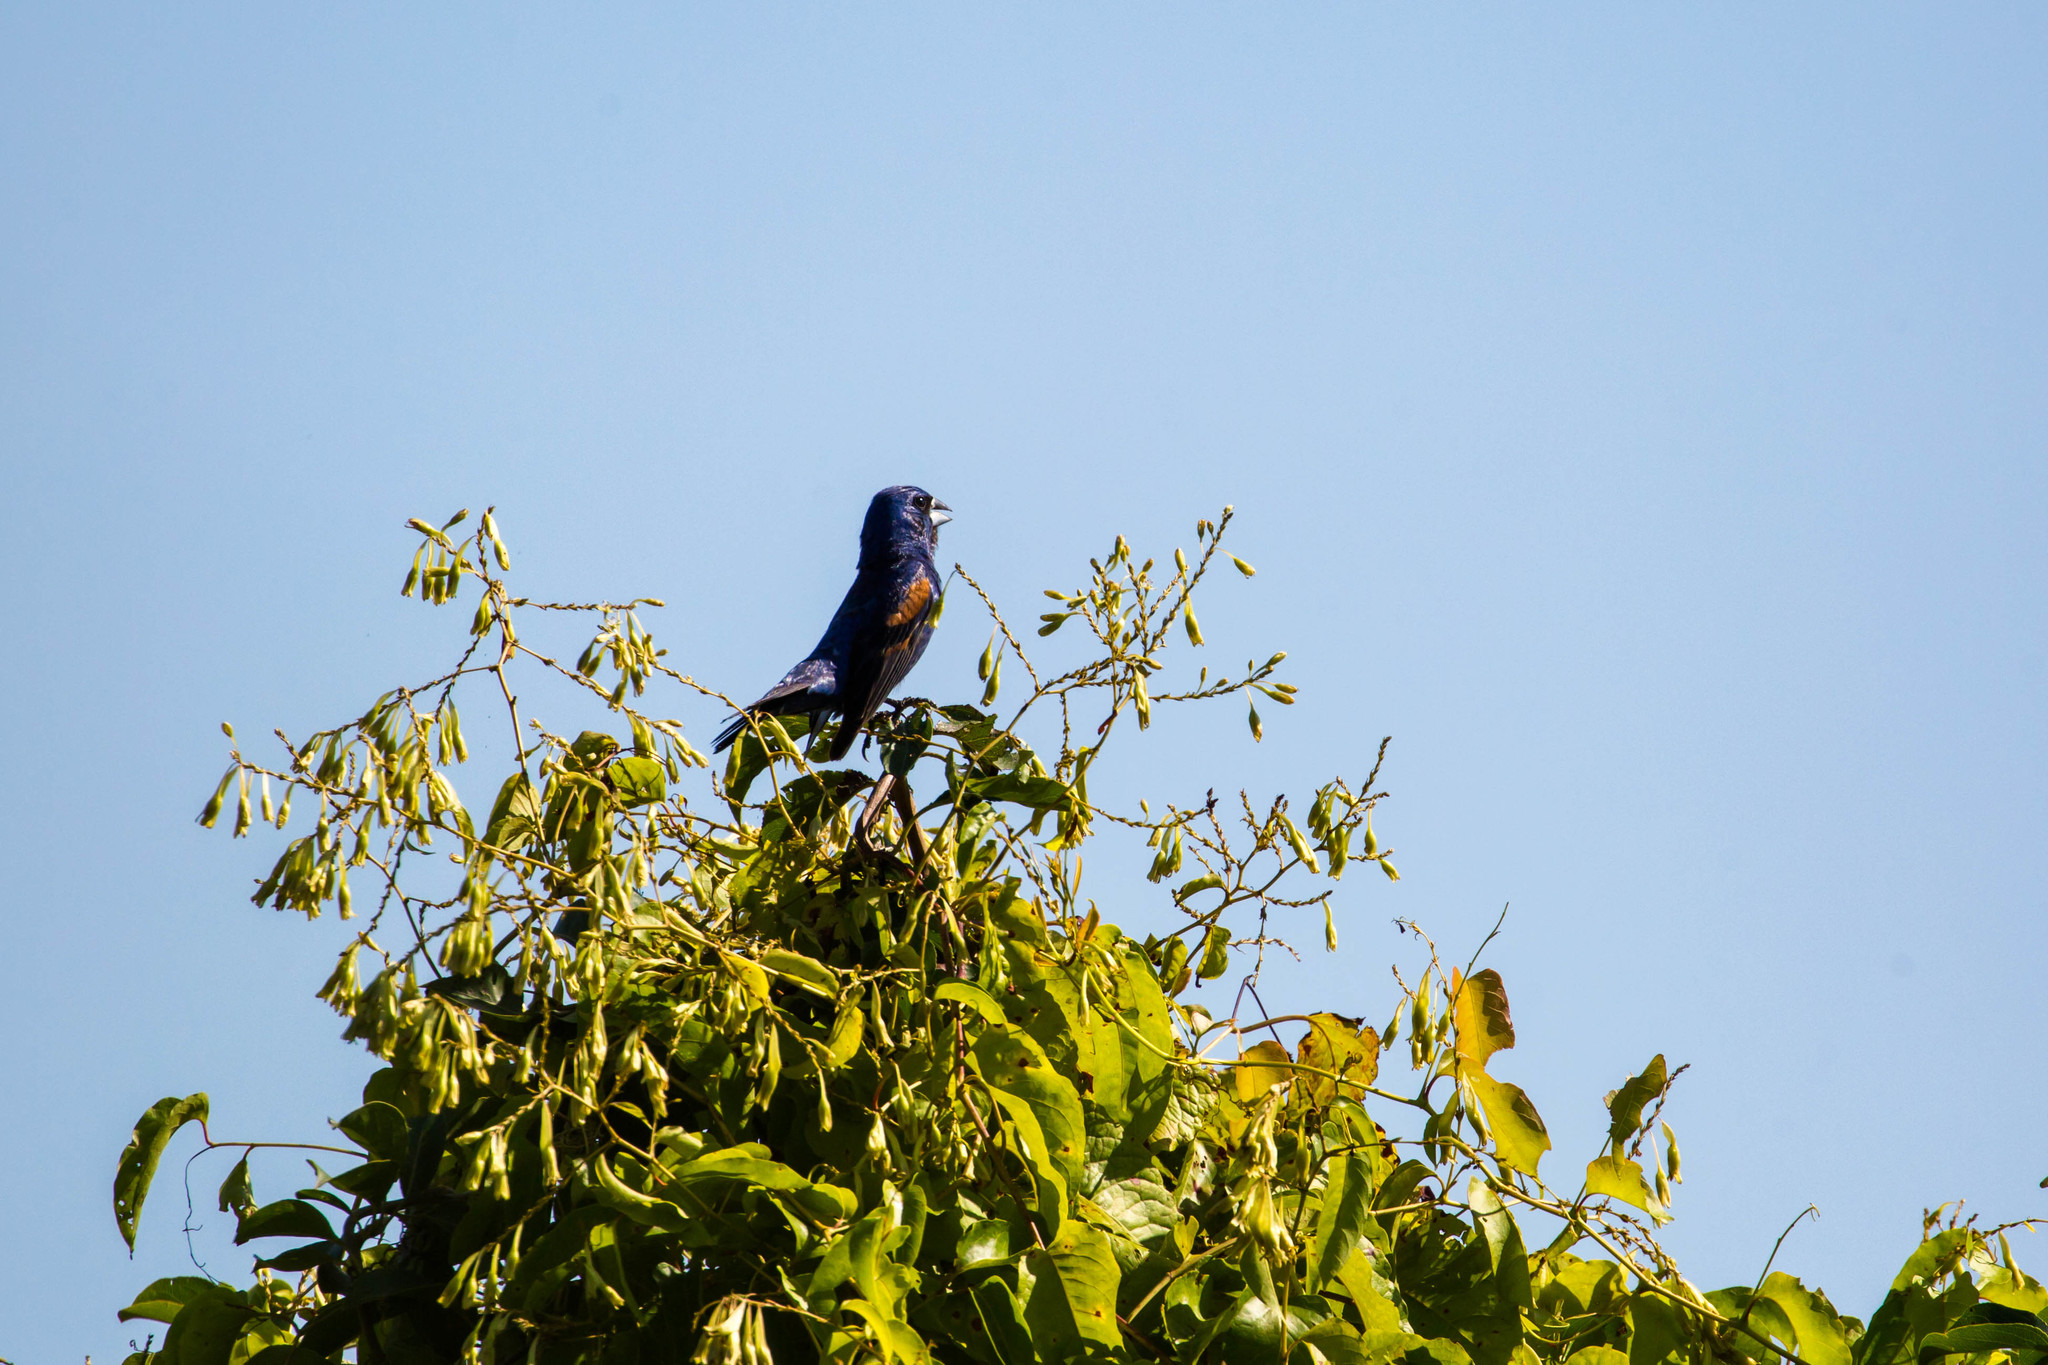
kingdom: Animalia
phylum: Chordata
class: Aves
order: Passeriformes
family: Cardinalidae
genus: Passerina
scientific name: Passerina caerulea
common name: Blue grosbeak
